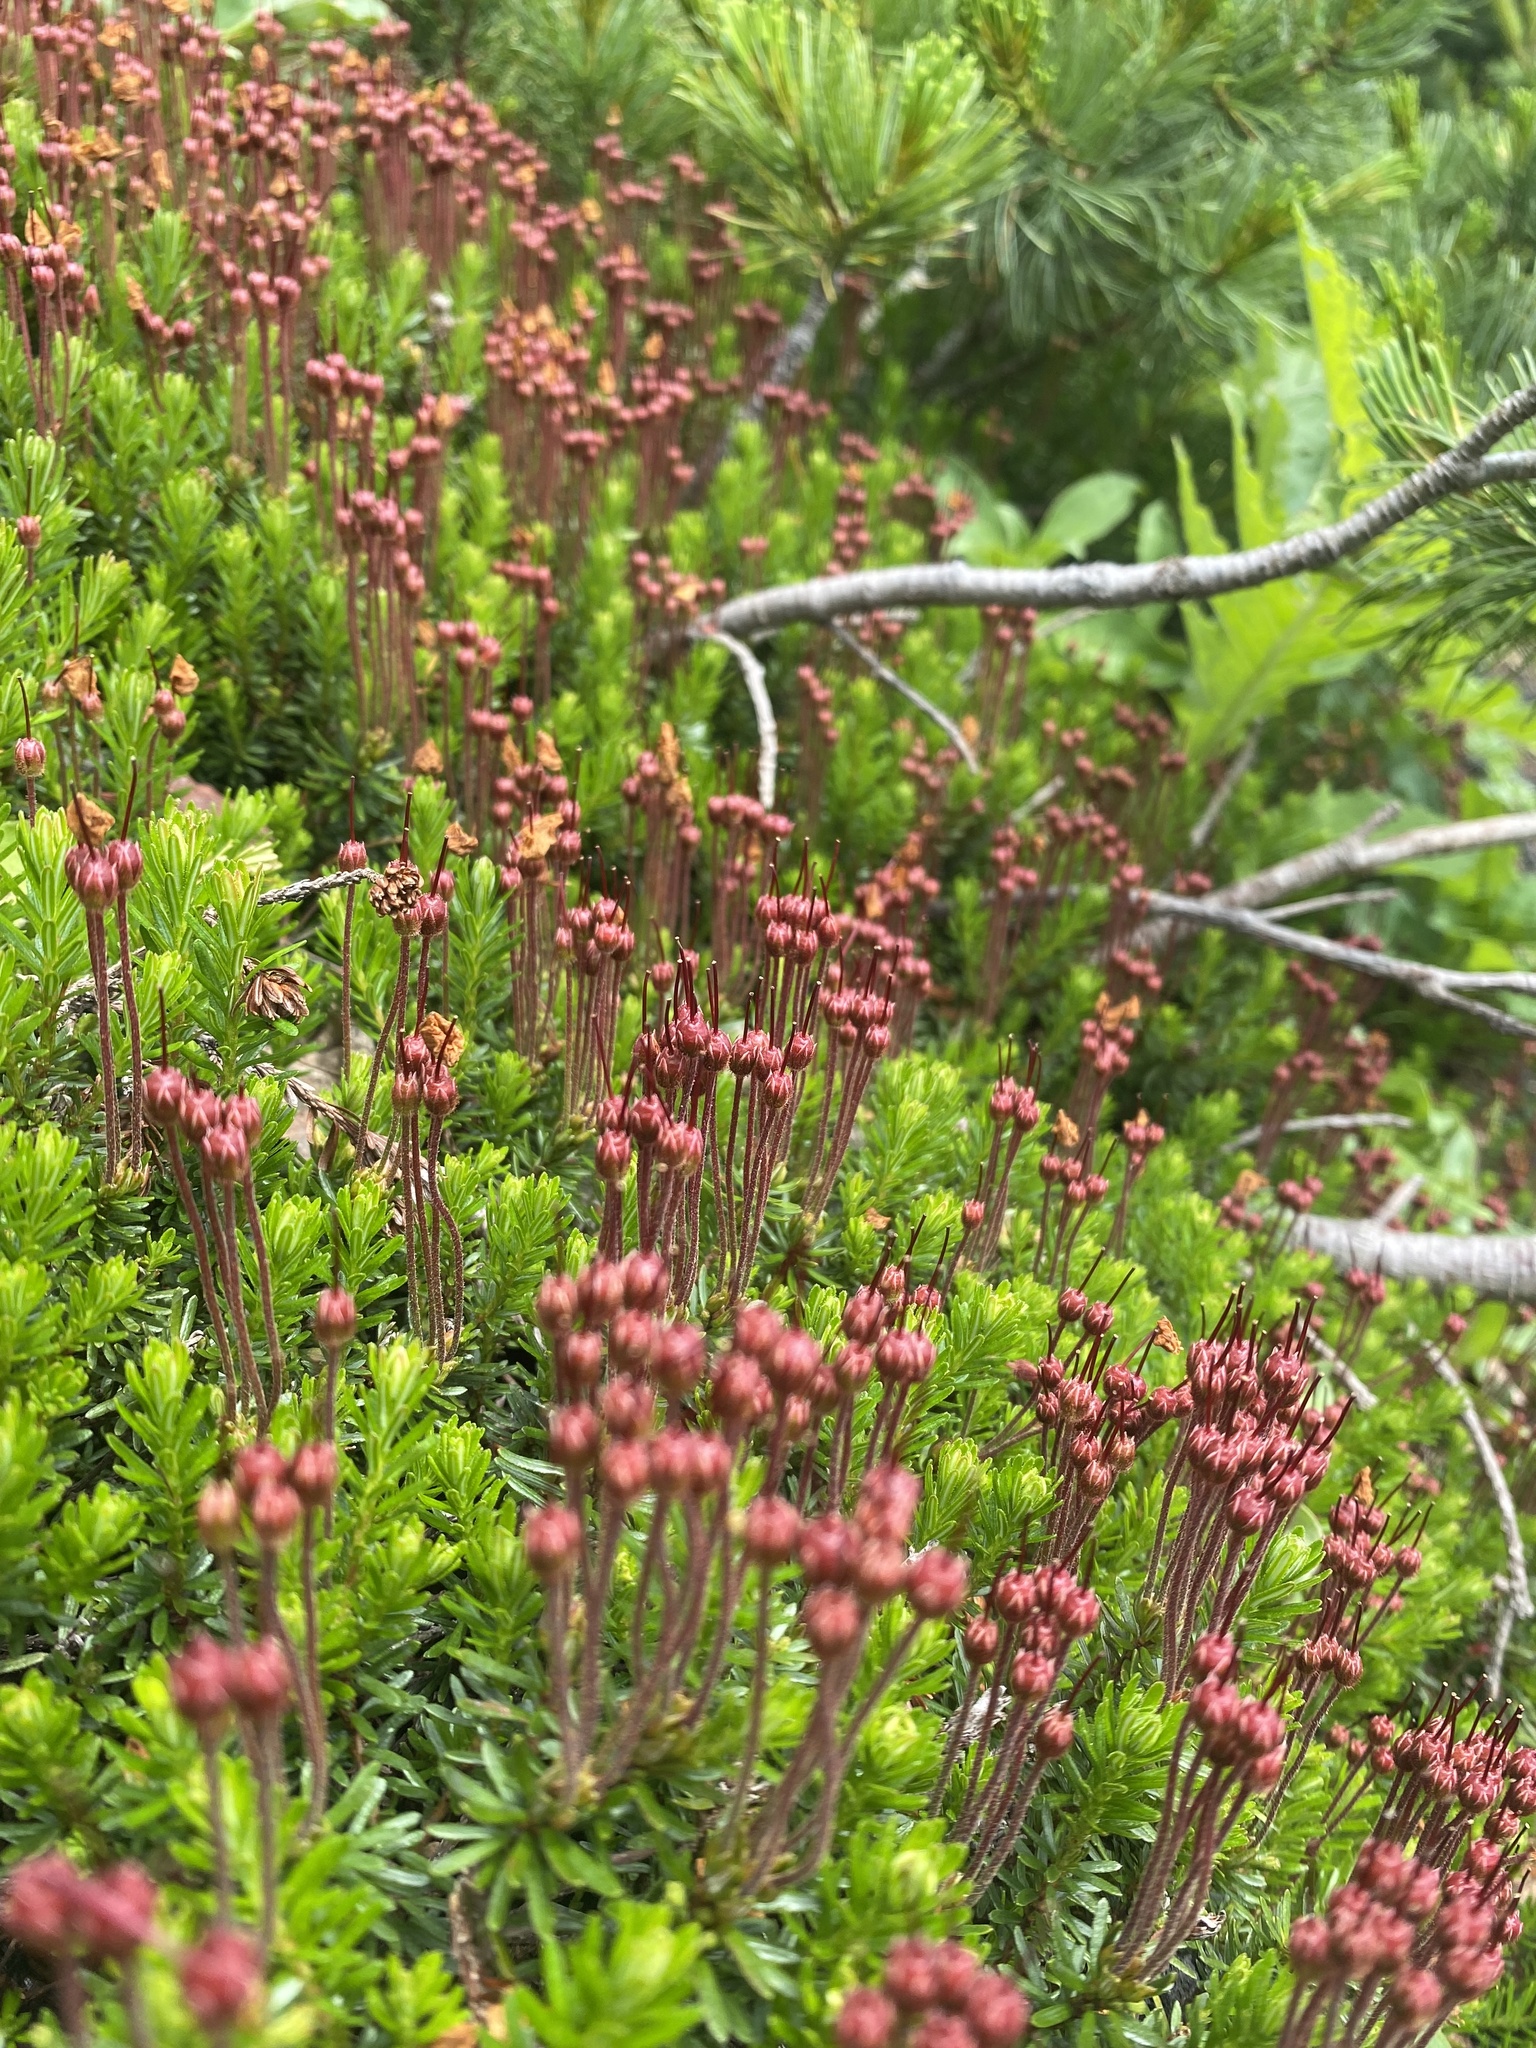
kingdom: Plantae
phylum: Tracheophyta
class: Magnoliopsida
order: Ericales
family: Ericaceae
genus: Phyllodoce
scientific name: Phyllodoce caerulea
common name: Blue heath
